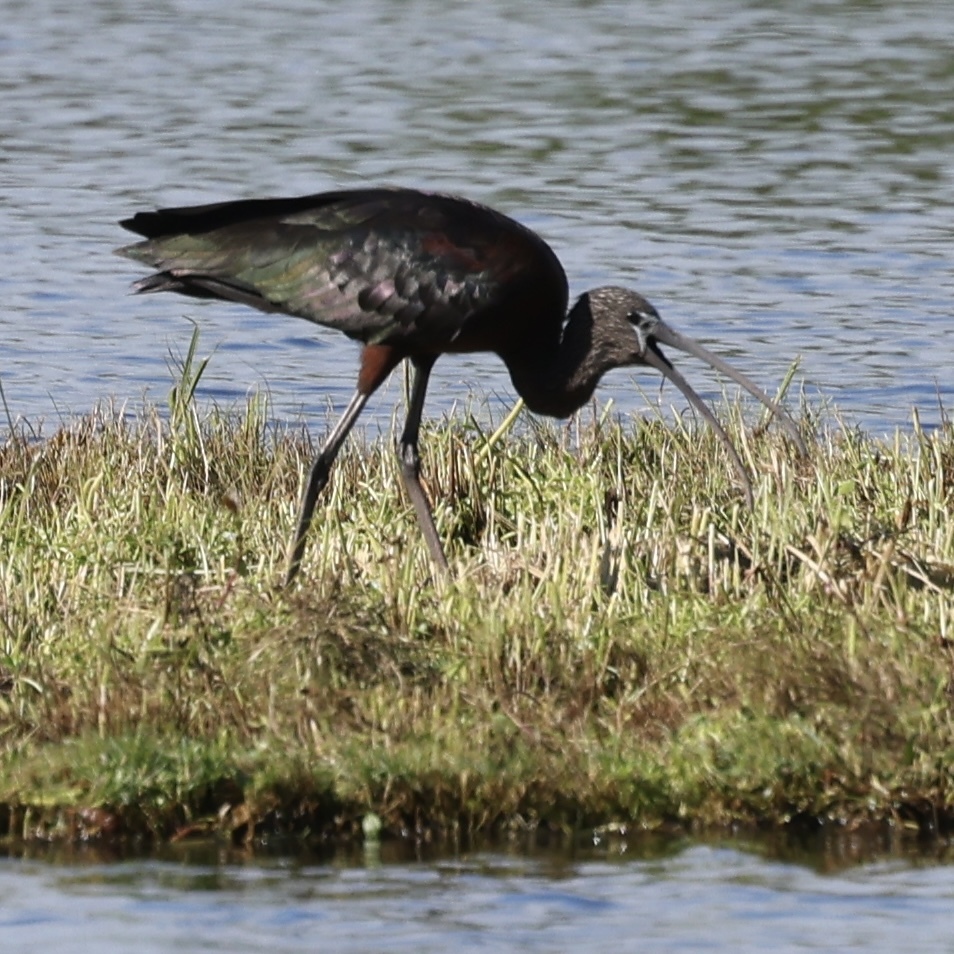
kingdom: Animalia
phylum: Chordata
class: Aves
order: Pelecaniformes
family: Threskiornithidae
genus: Plegadis
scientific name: Plegadis falcinellus
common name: Glossy ibis
